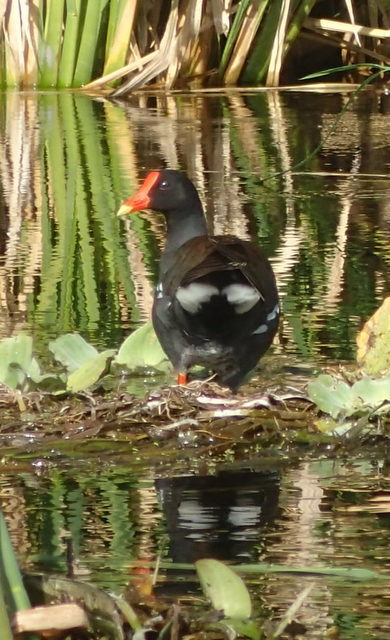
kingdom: Animalia
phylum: Chordata
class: Aves
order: Gruiformes
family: Rallidae
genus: Gallinula
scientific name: Gallinula chloropus
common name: Common moorhen
